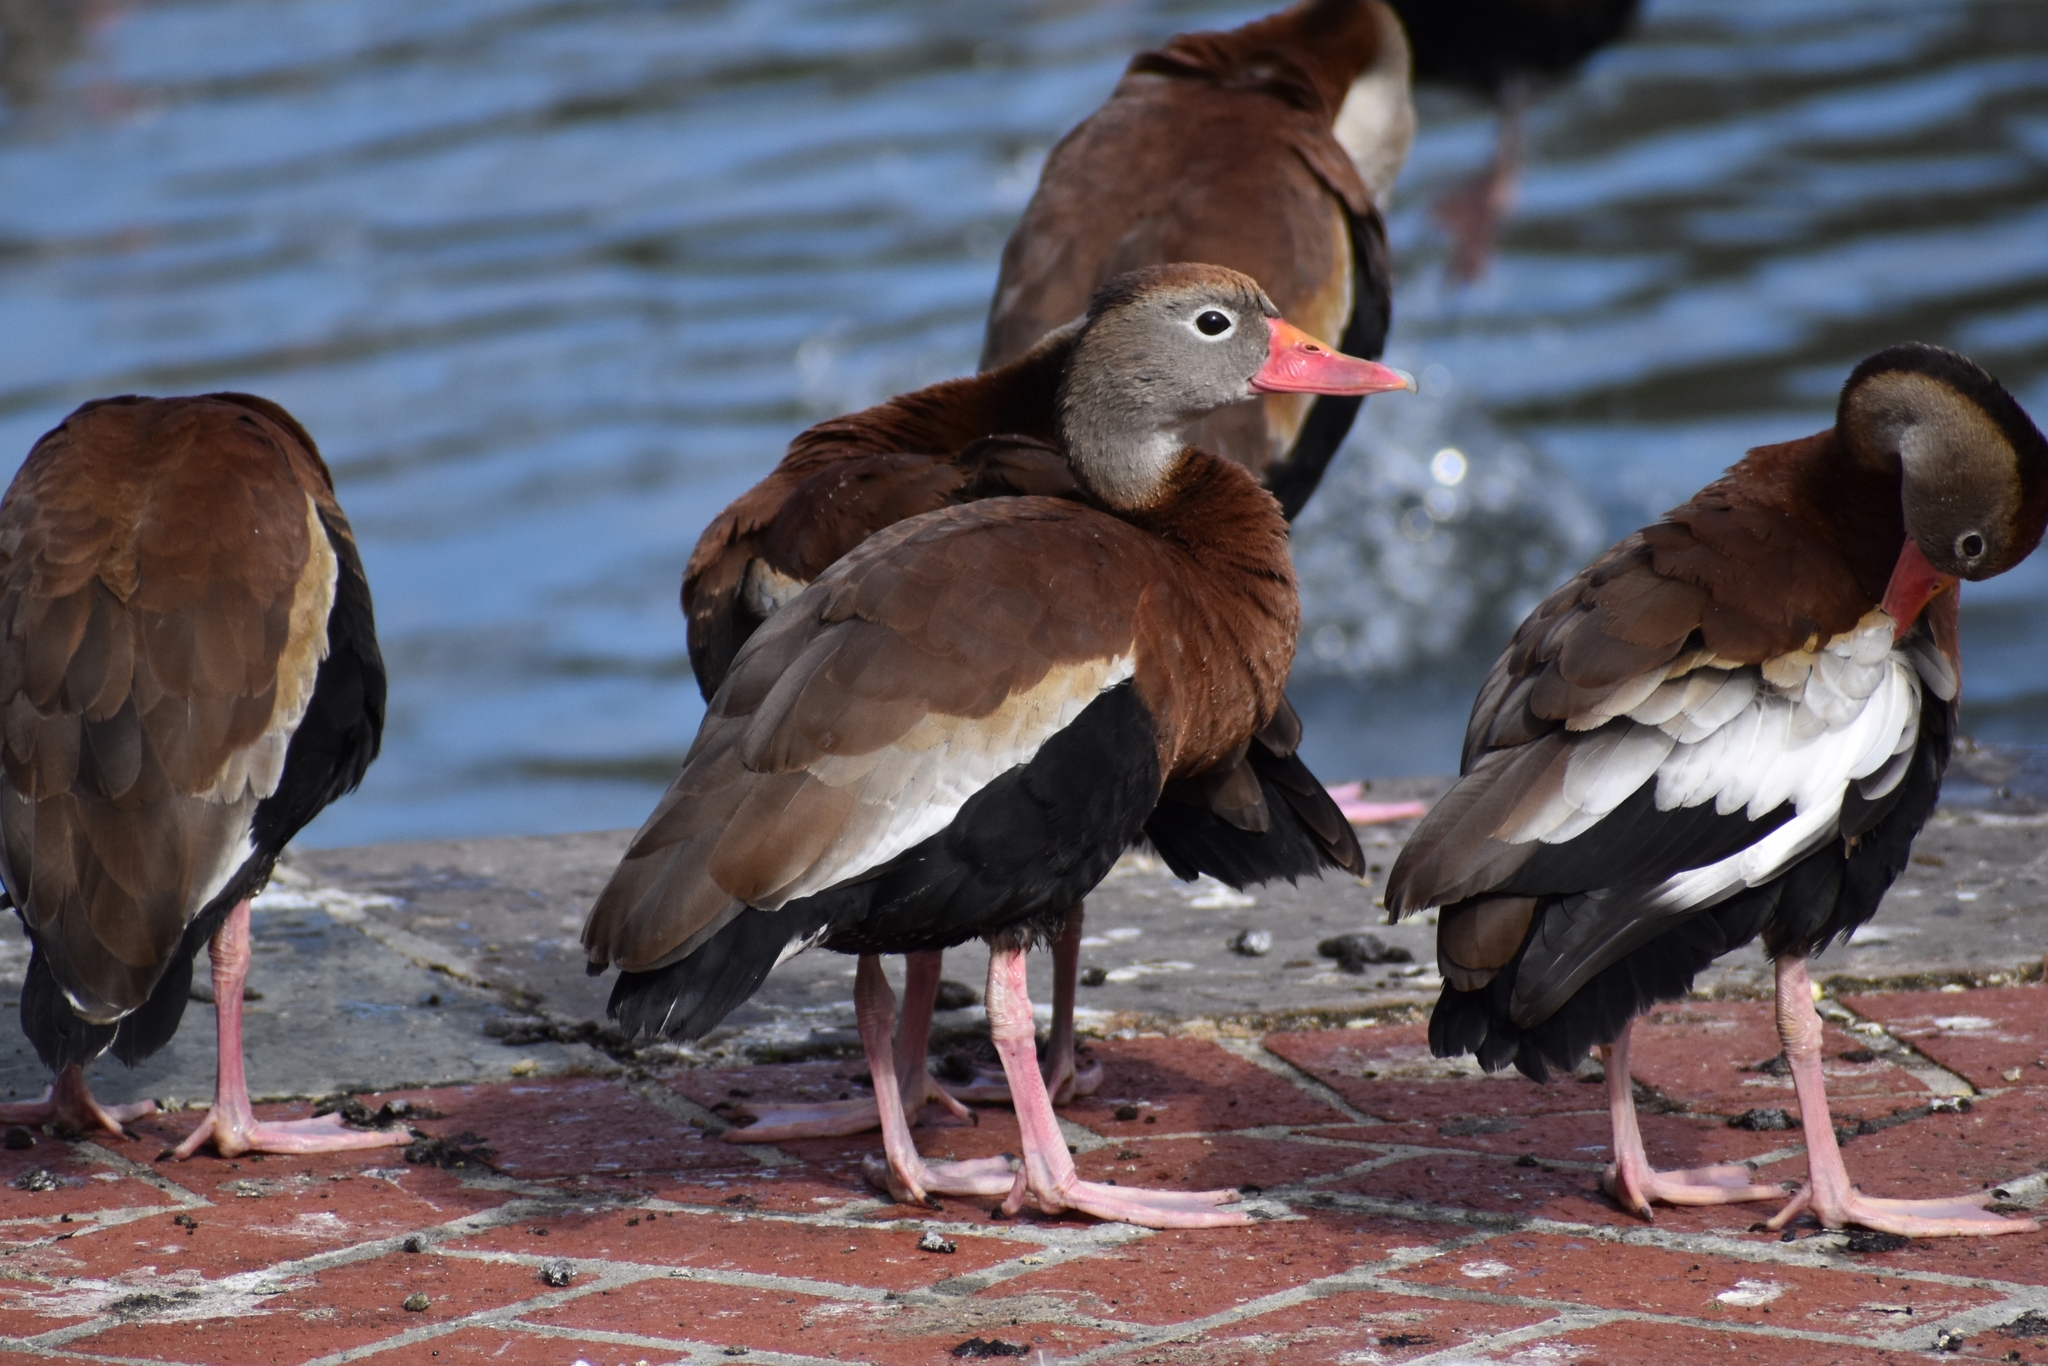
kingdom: Animalia
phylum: Chordata
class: Aves
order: Anseriformes
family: Anatidae
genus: Dendrocygna
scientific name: Dendrocygna autumnalis
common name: Black-bellied whistling duck
